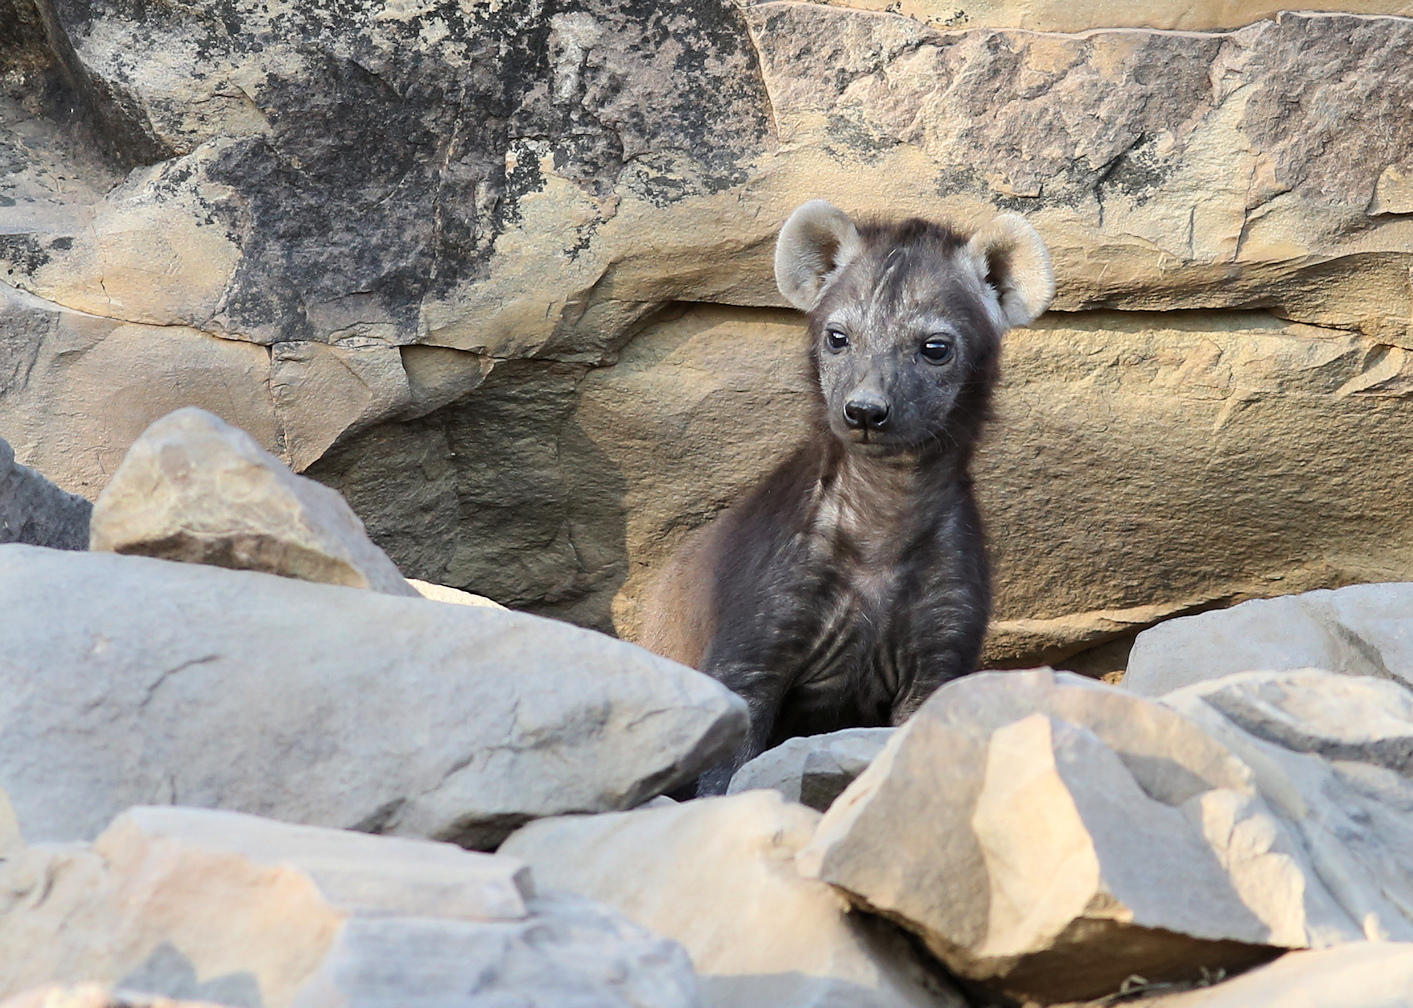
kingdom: Animalia
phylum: Chordata
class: Mammalia
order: Carnivora
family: Hyaenidae
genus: Crocuta
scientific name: Crocuta crocuta
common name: Spotted hyaena
